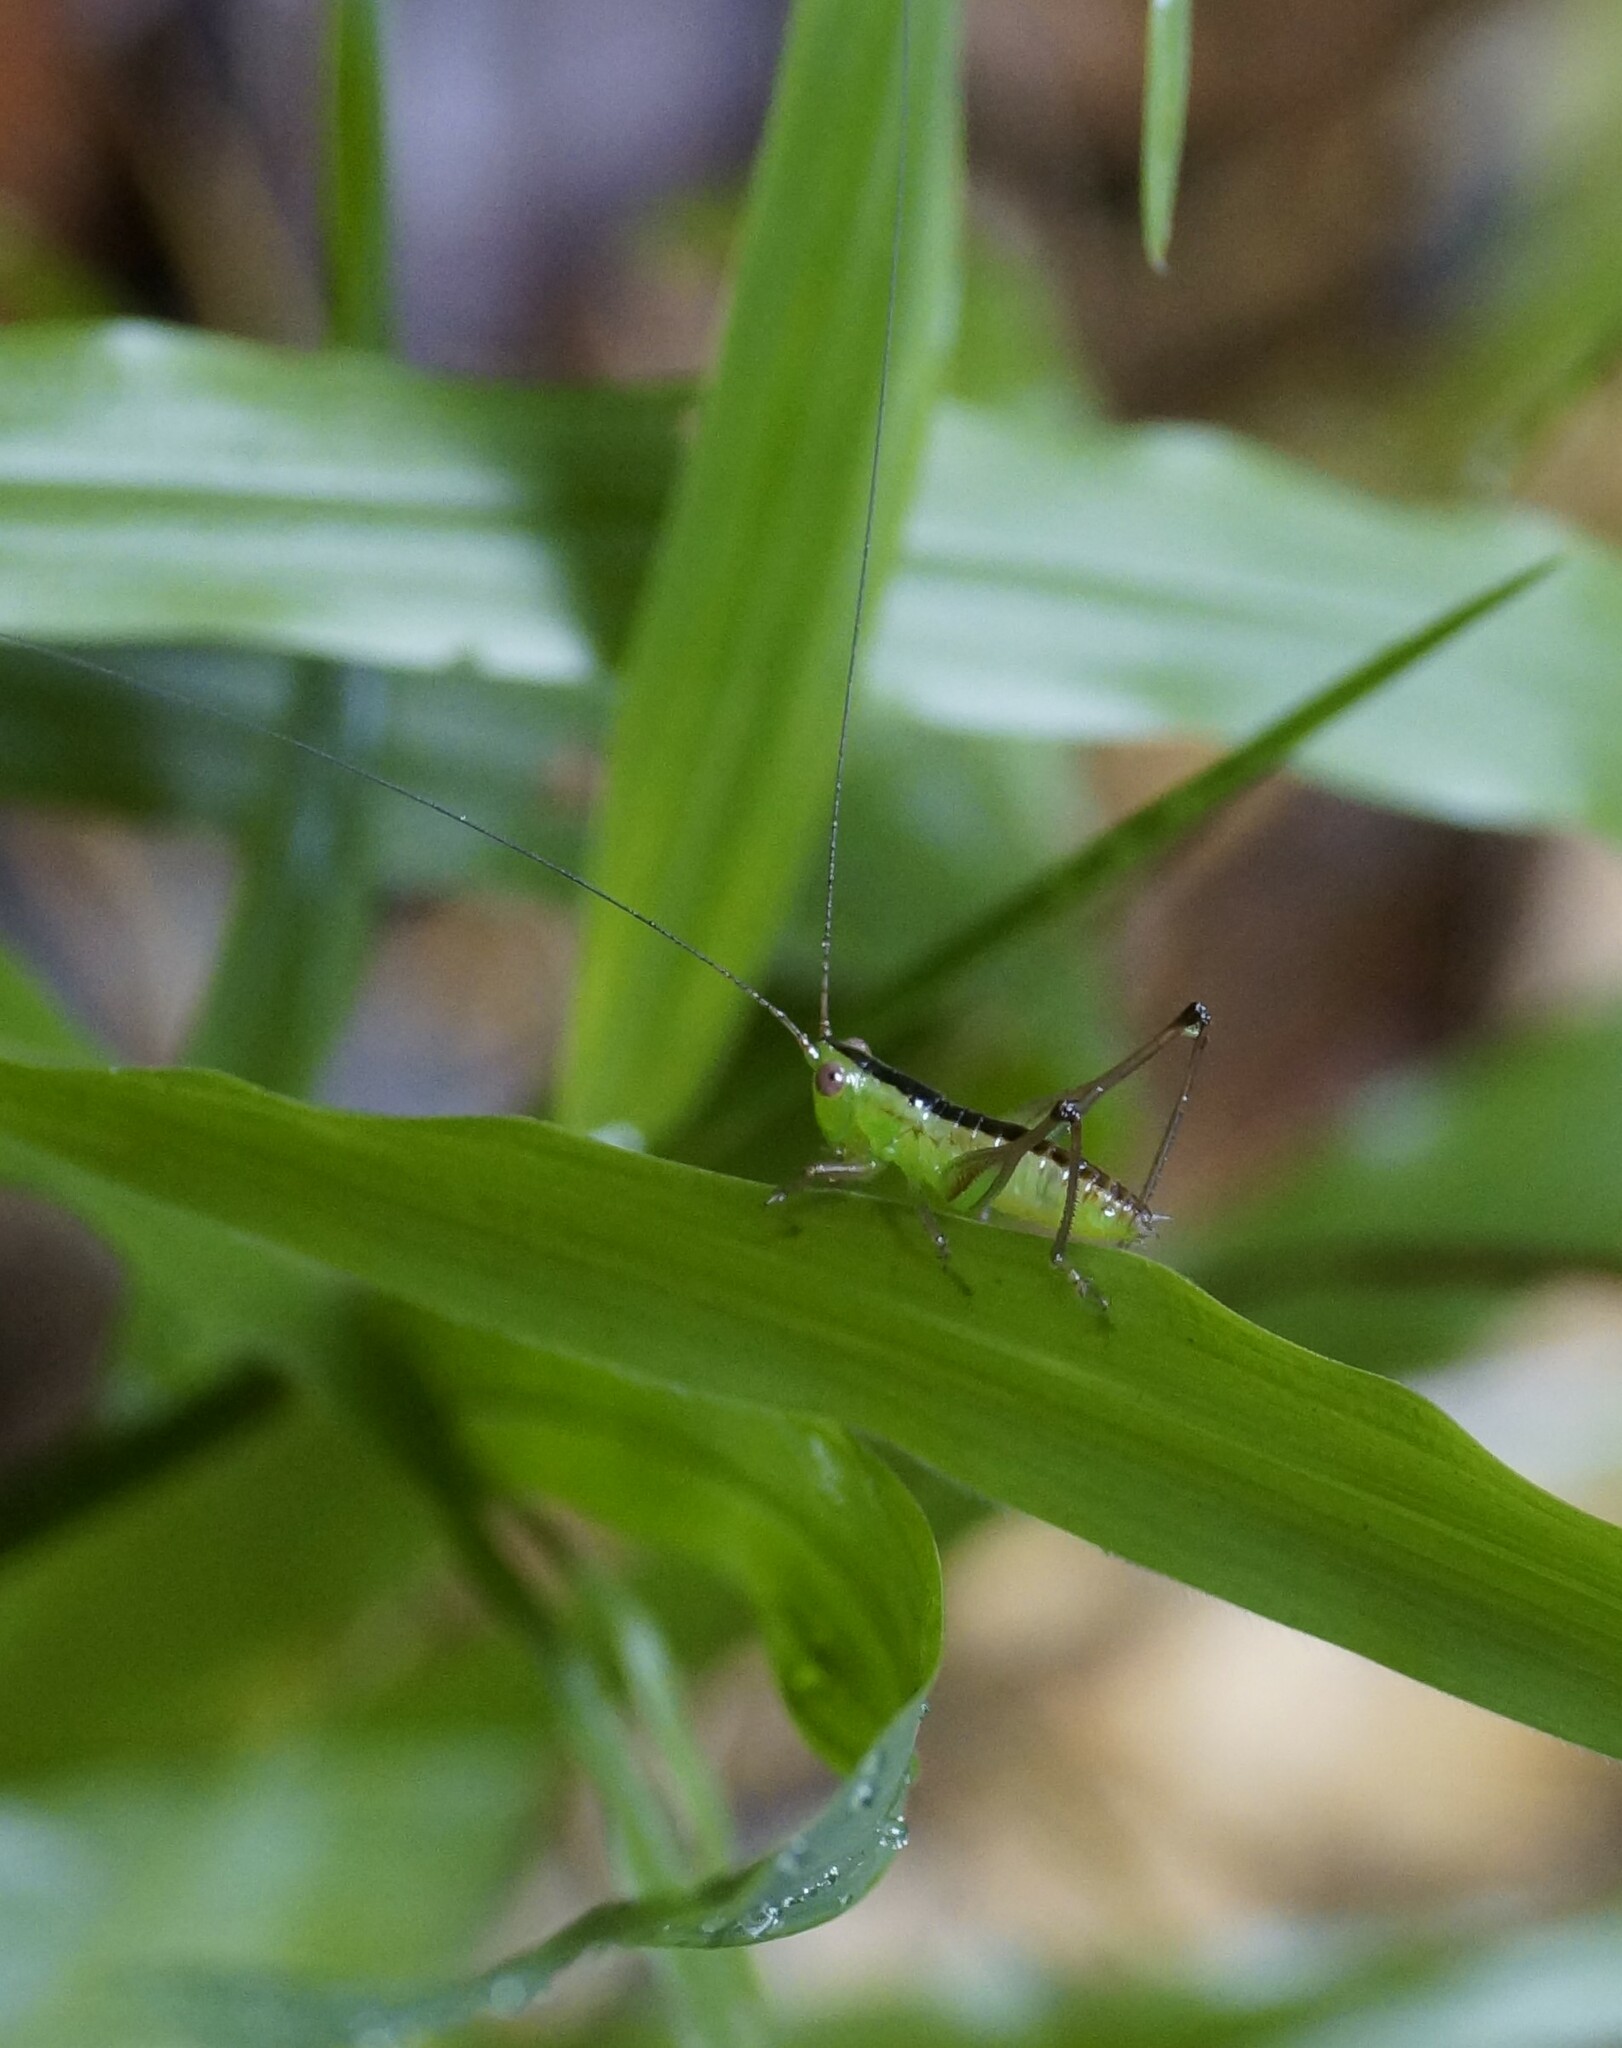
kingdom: Animalia
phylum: Arthropoda
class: Insecta
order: Orthoptera
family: Tettigoniidae
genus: Conocephalus
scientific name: Conocephalus semivittatus
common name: Blackish meadow katydid
